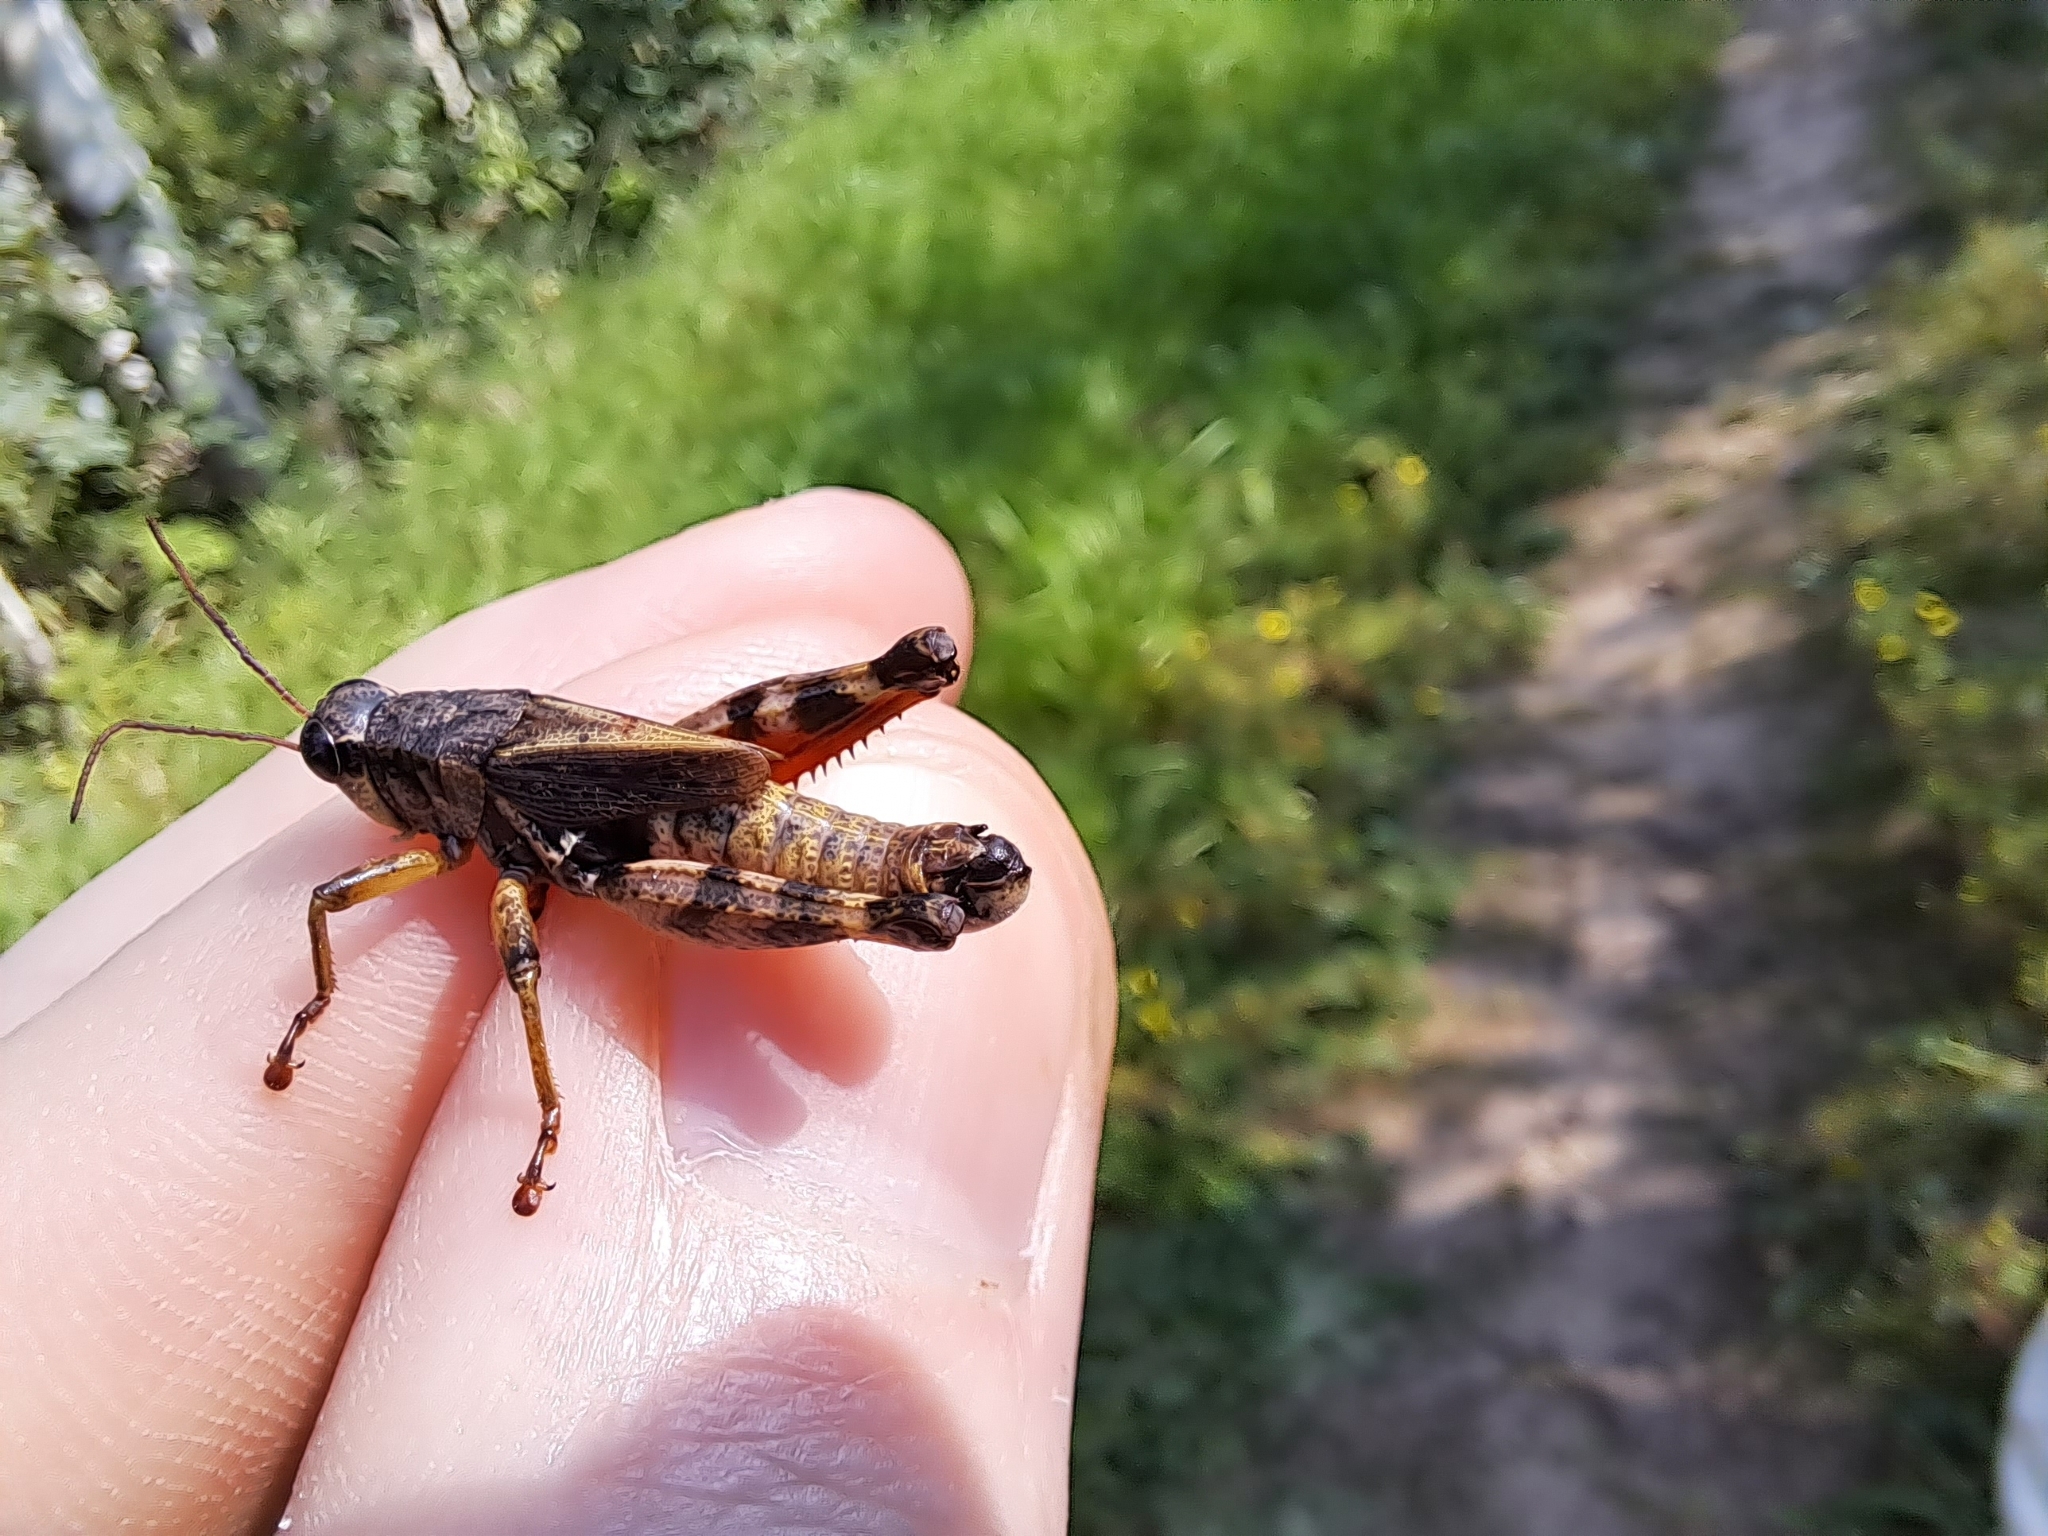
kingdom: Animalia
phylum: Arthropoda
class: Insecta
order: Orthoptera
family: Acrididae
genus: Melanoplus
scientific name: Melanoplus huroni
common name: Huron short-winged locust
